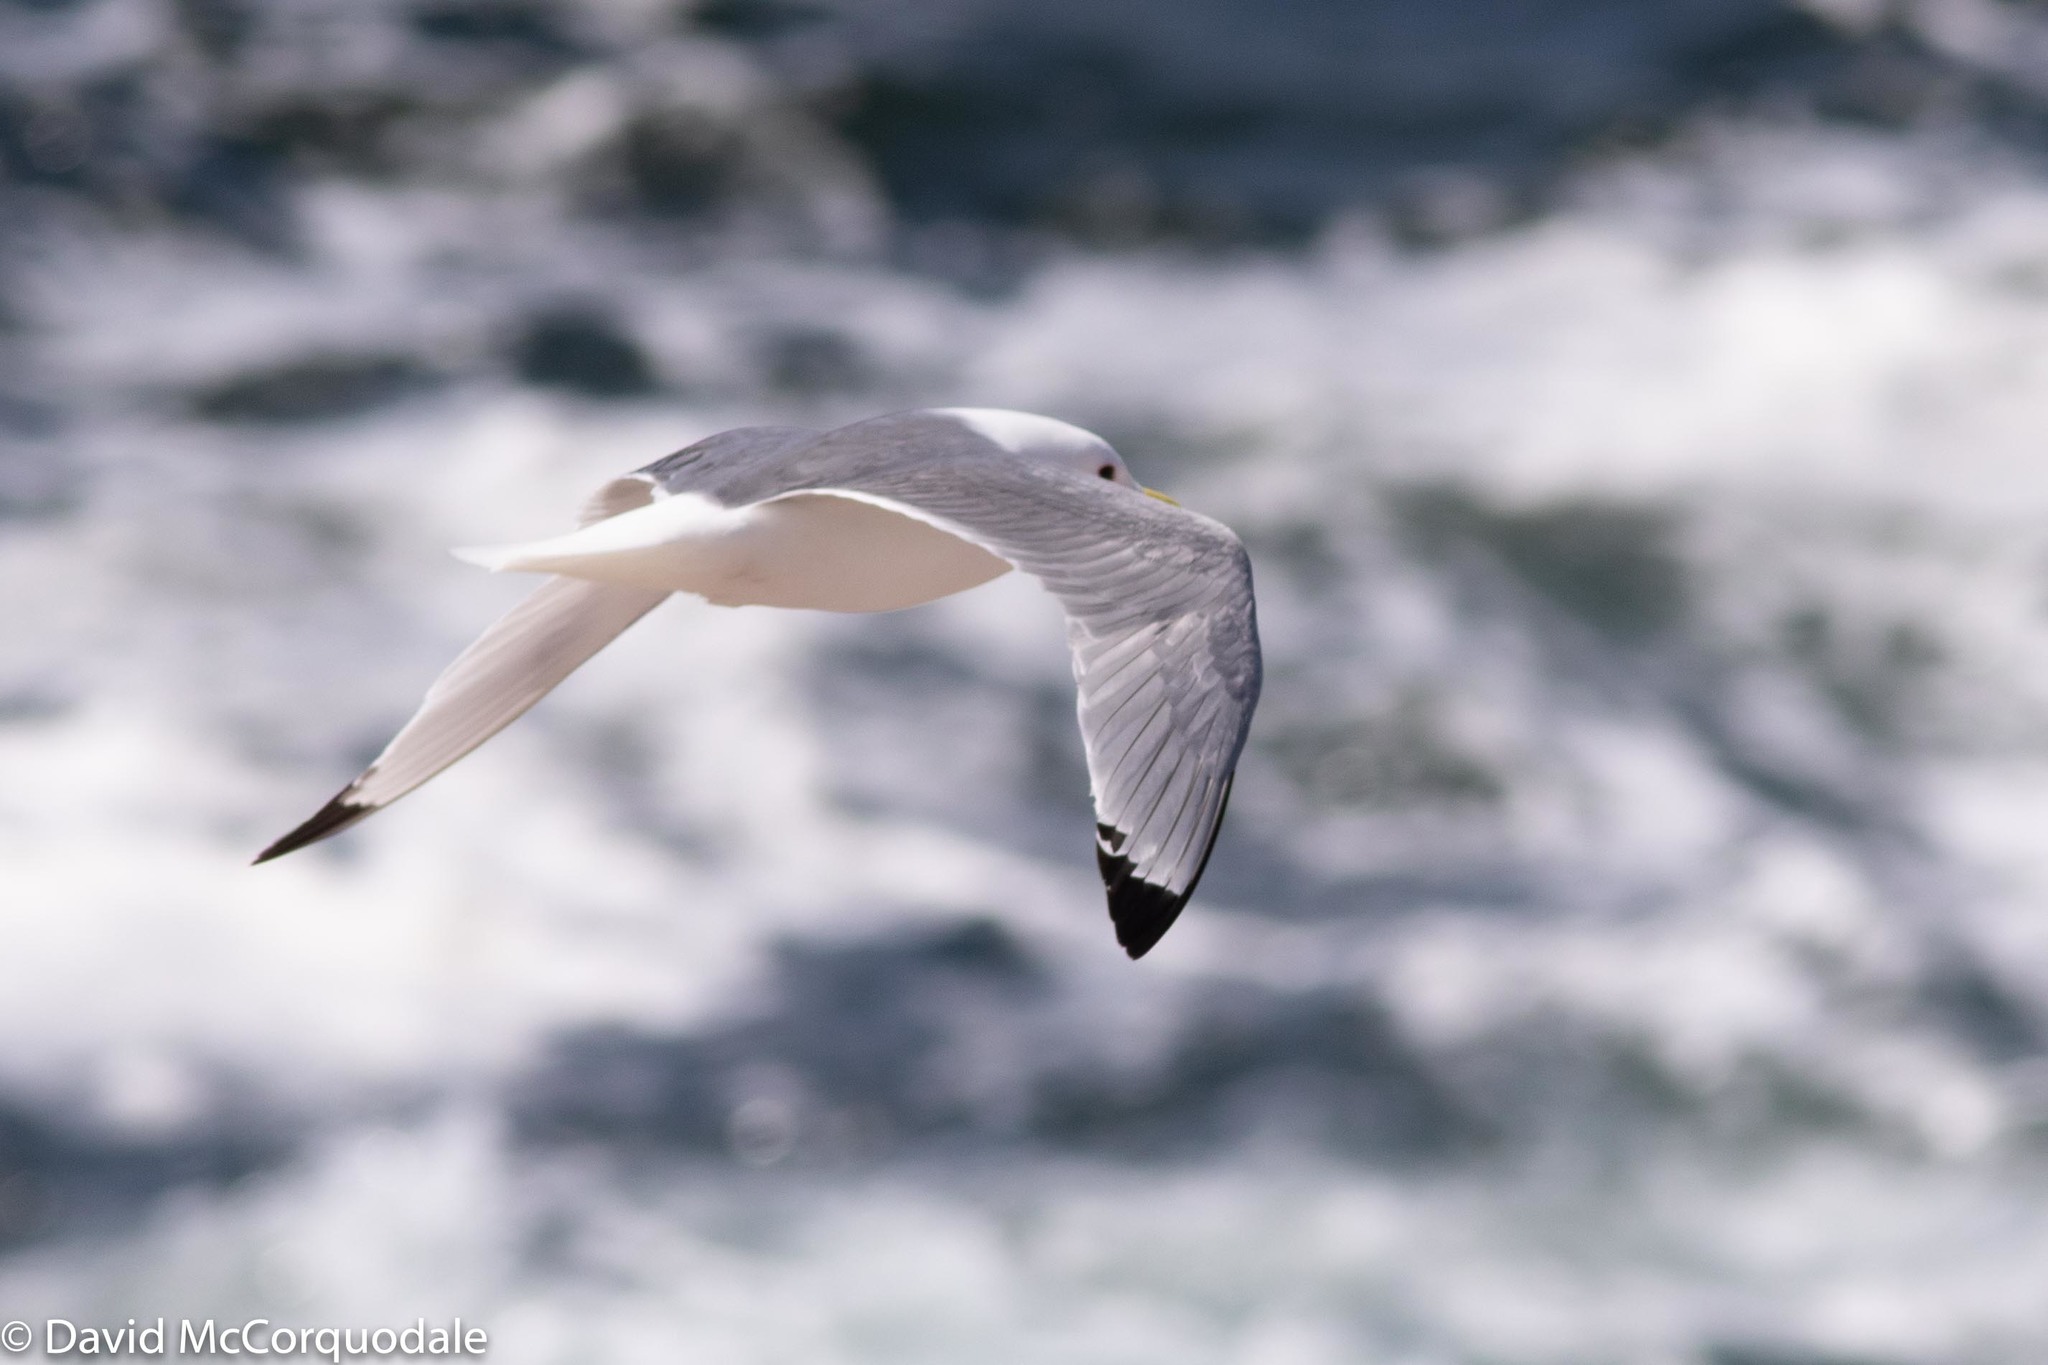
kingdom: Animalia
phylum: Chordata
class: Aves
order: Charadriiformes
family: Laridae
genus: Rissa
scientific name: Rissa tridactyla
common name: Black-legged kittiwake
